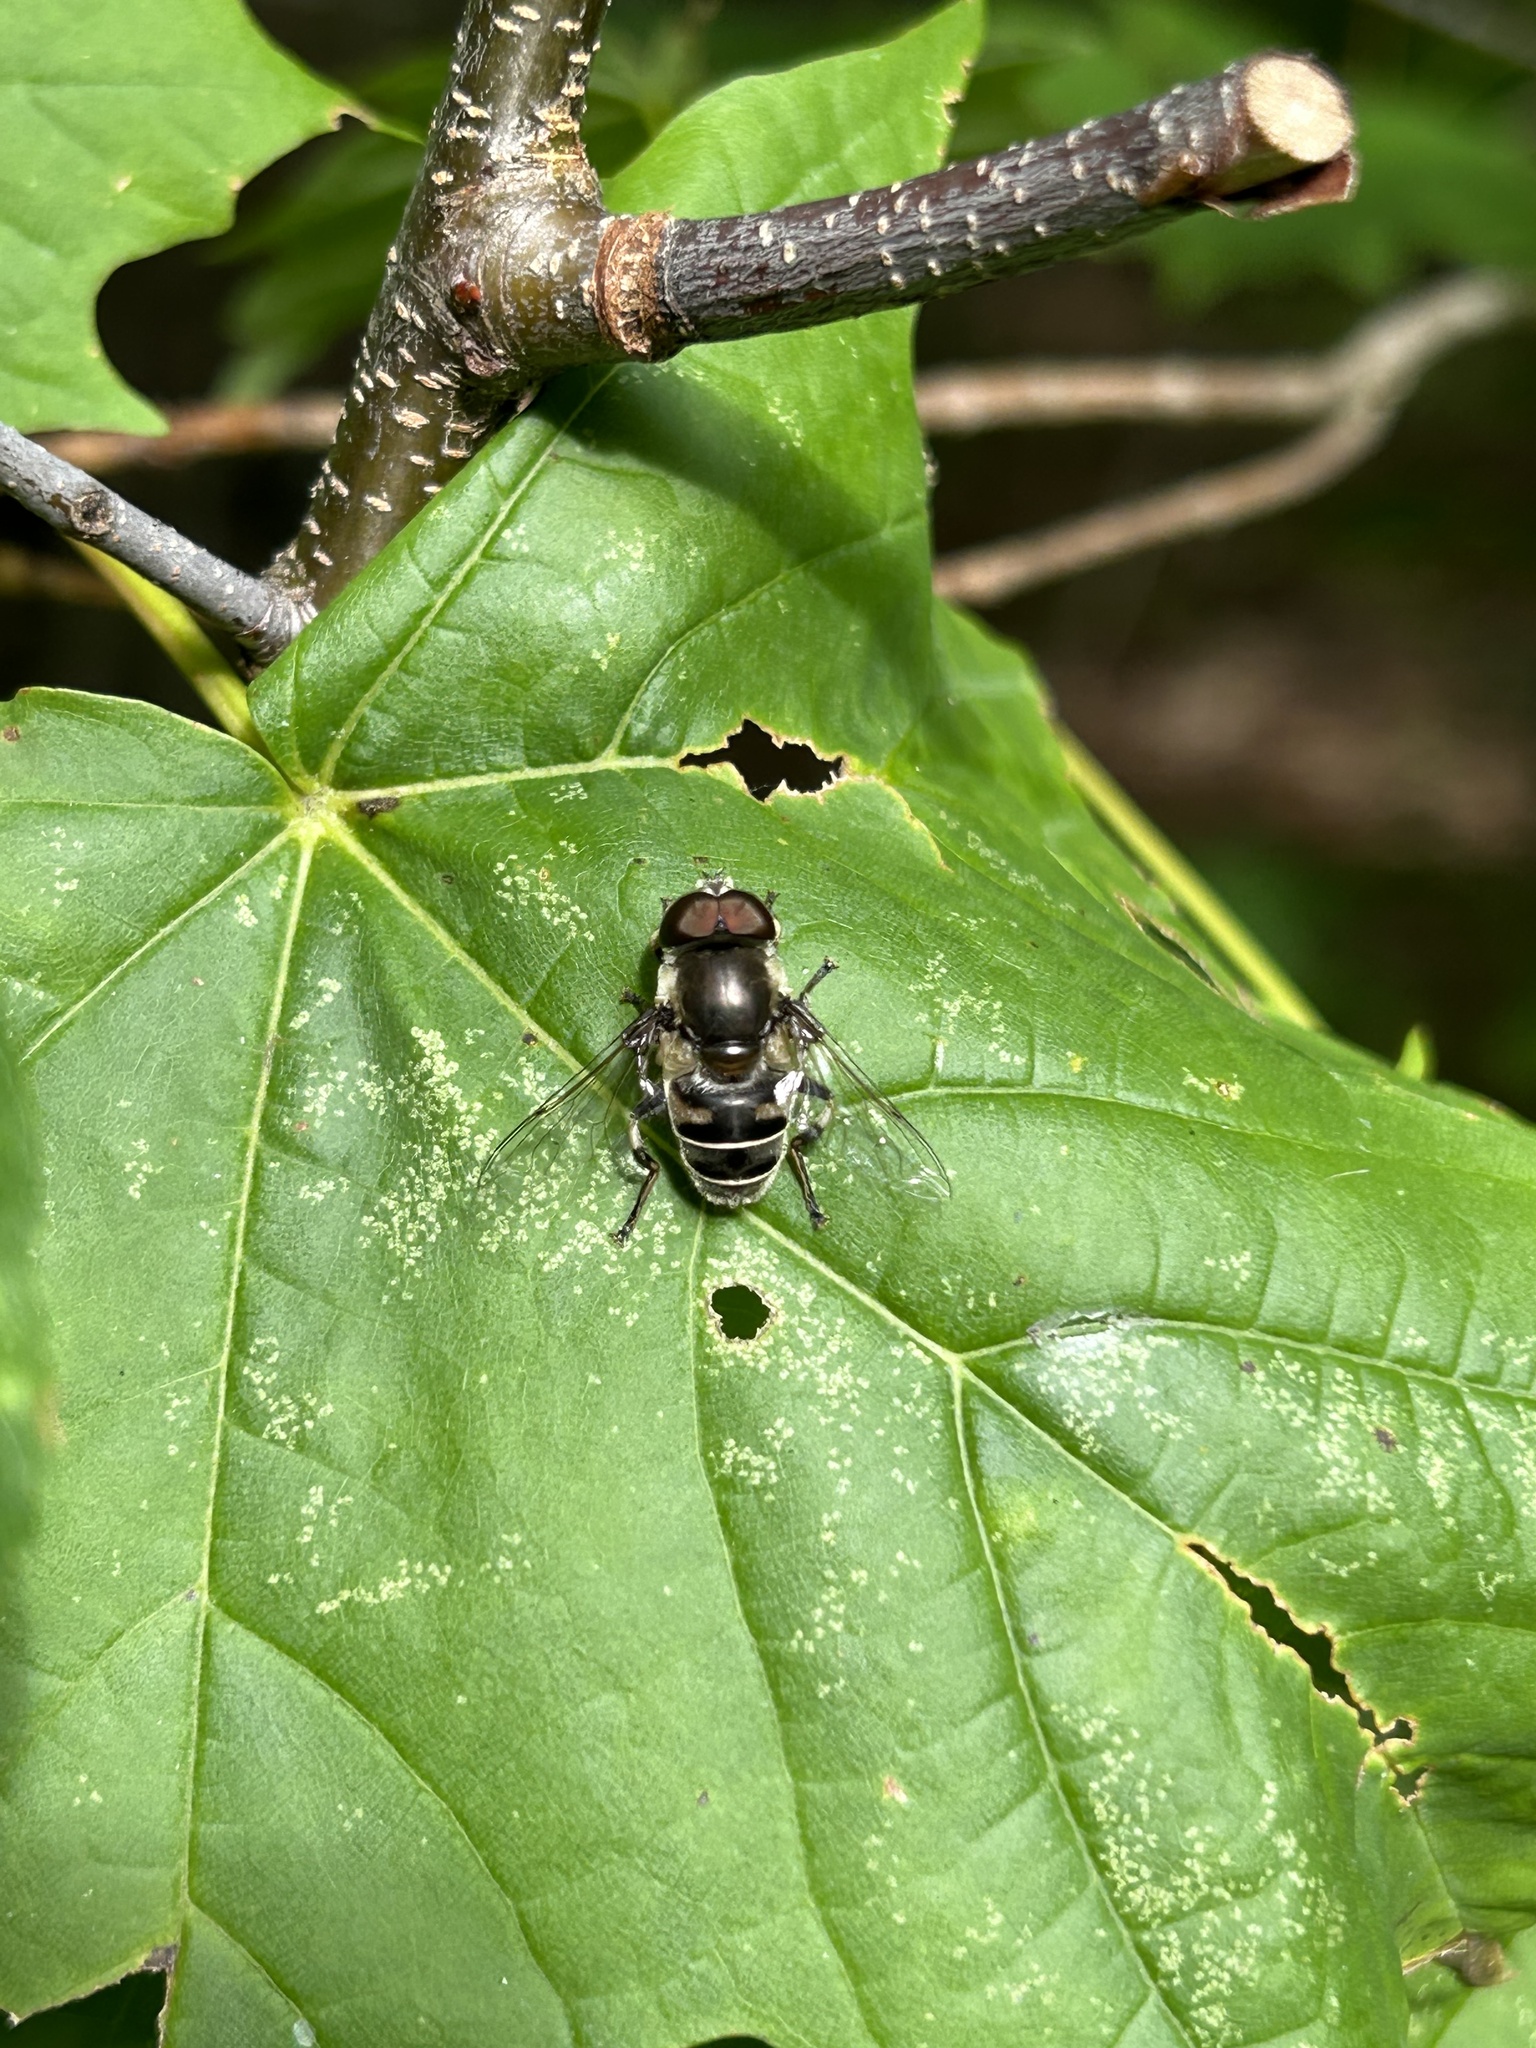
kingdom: Animalia
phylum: Arthropoda
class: Insecta
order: Diptera
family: Syrphidae
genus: Eristalis
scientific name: Eristalis dimidiata
